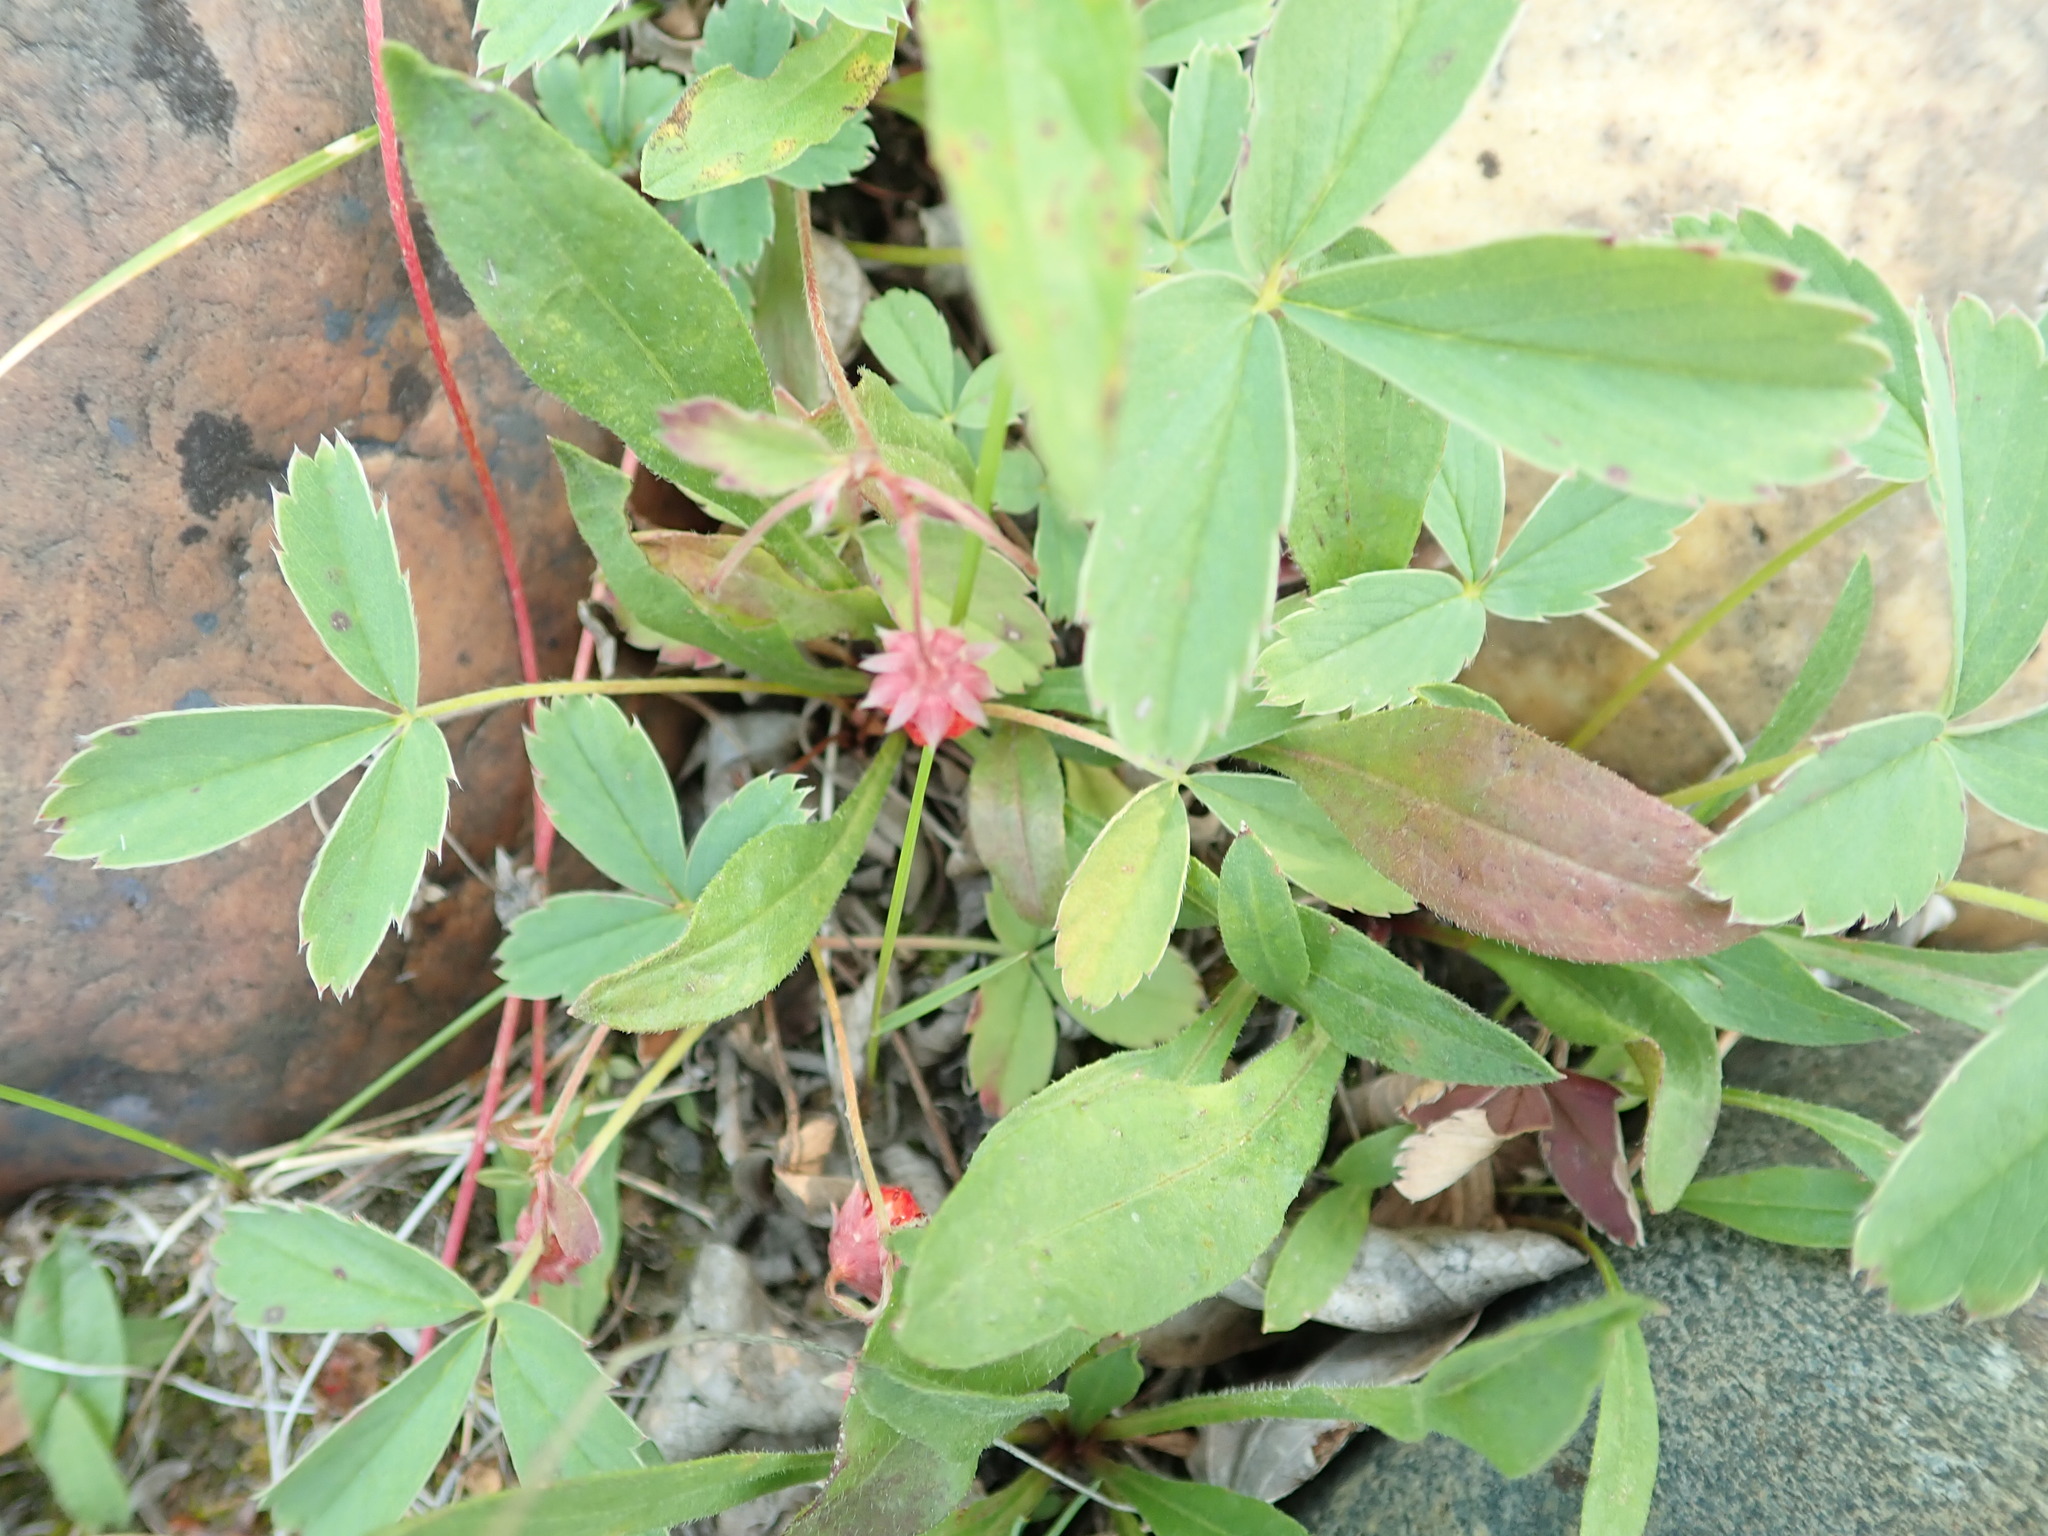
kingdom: Plantae
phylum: Tracheophyta
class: Magnoliopsida
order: Rosales
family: Rosaceae
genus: Fragaria
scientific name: Fragaria virginiana
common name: Thickleaved wild strawberry
